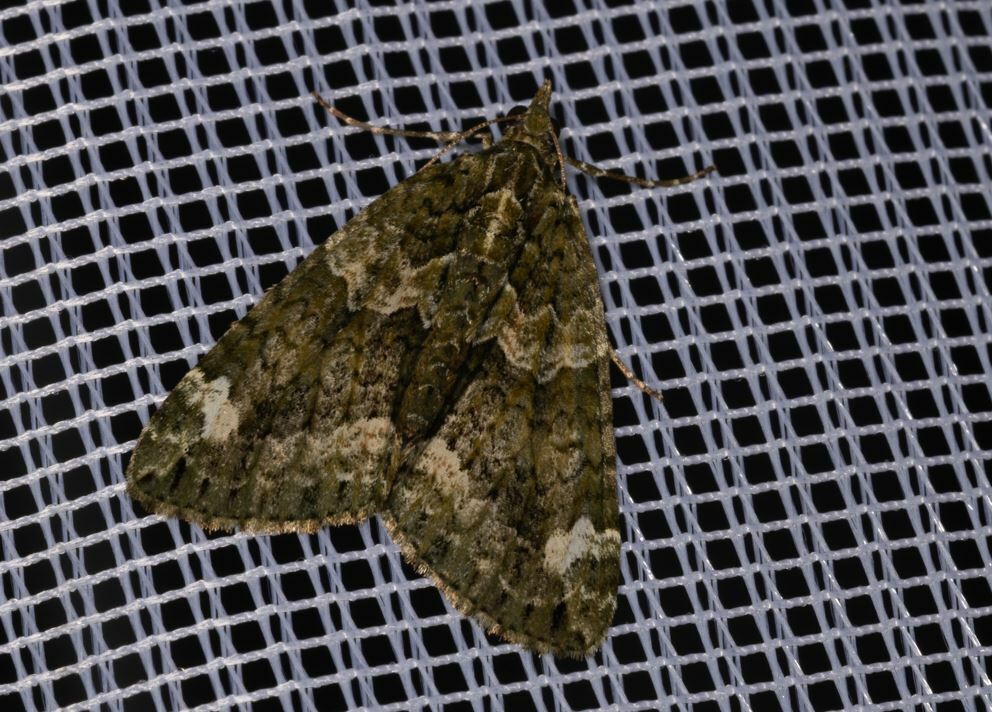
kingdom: Animalia
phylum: Arthropoda
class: Insecta
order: Lepidoptera
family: Geometridae
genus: Chloroclysta
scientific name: Chloroclysta siterata
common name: Red-green carpet
